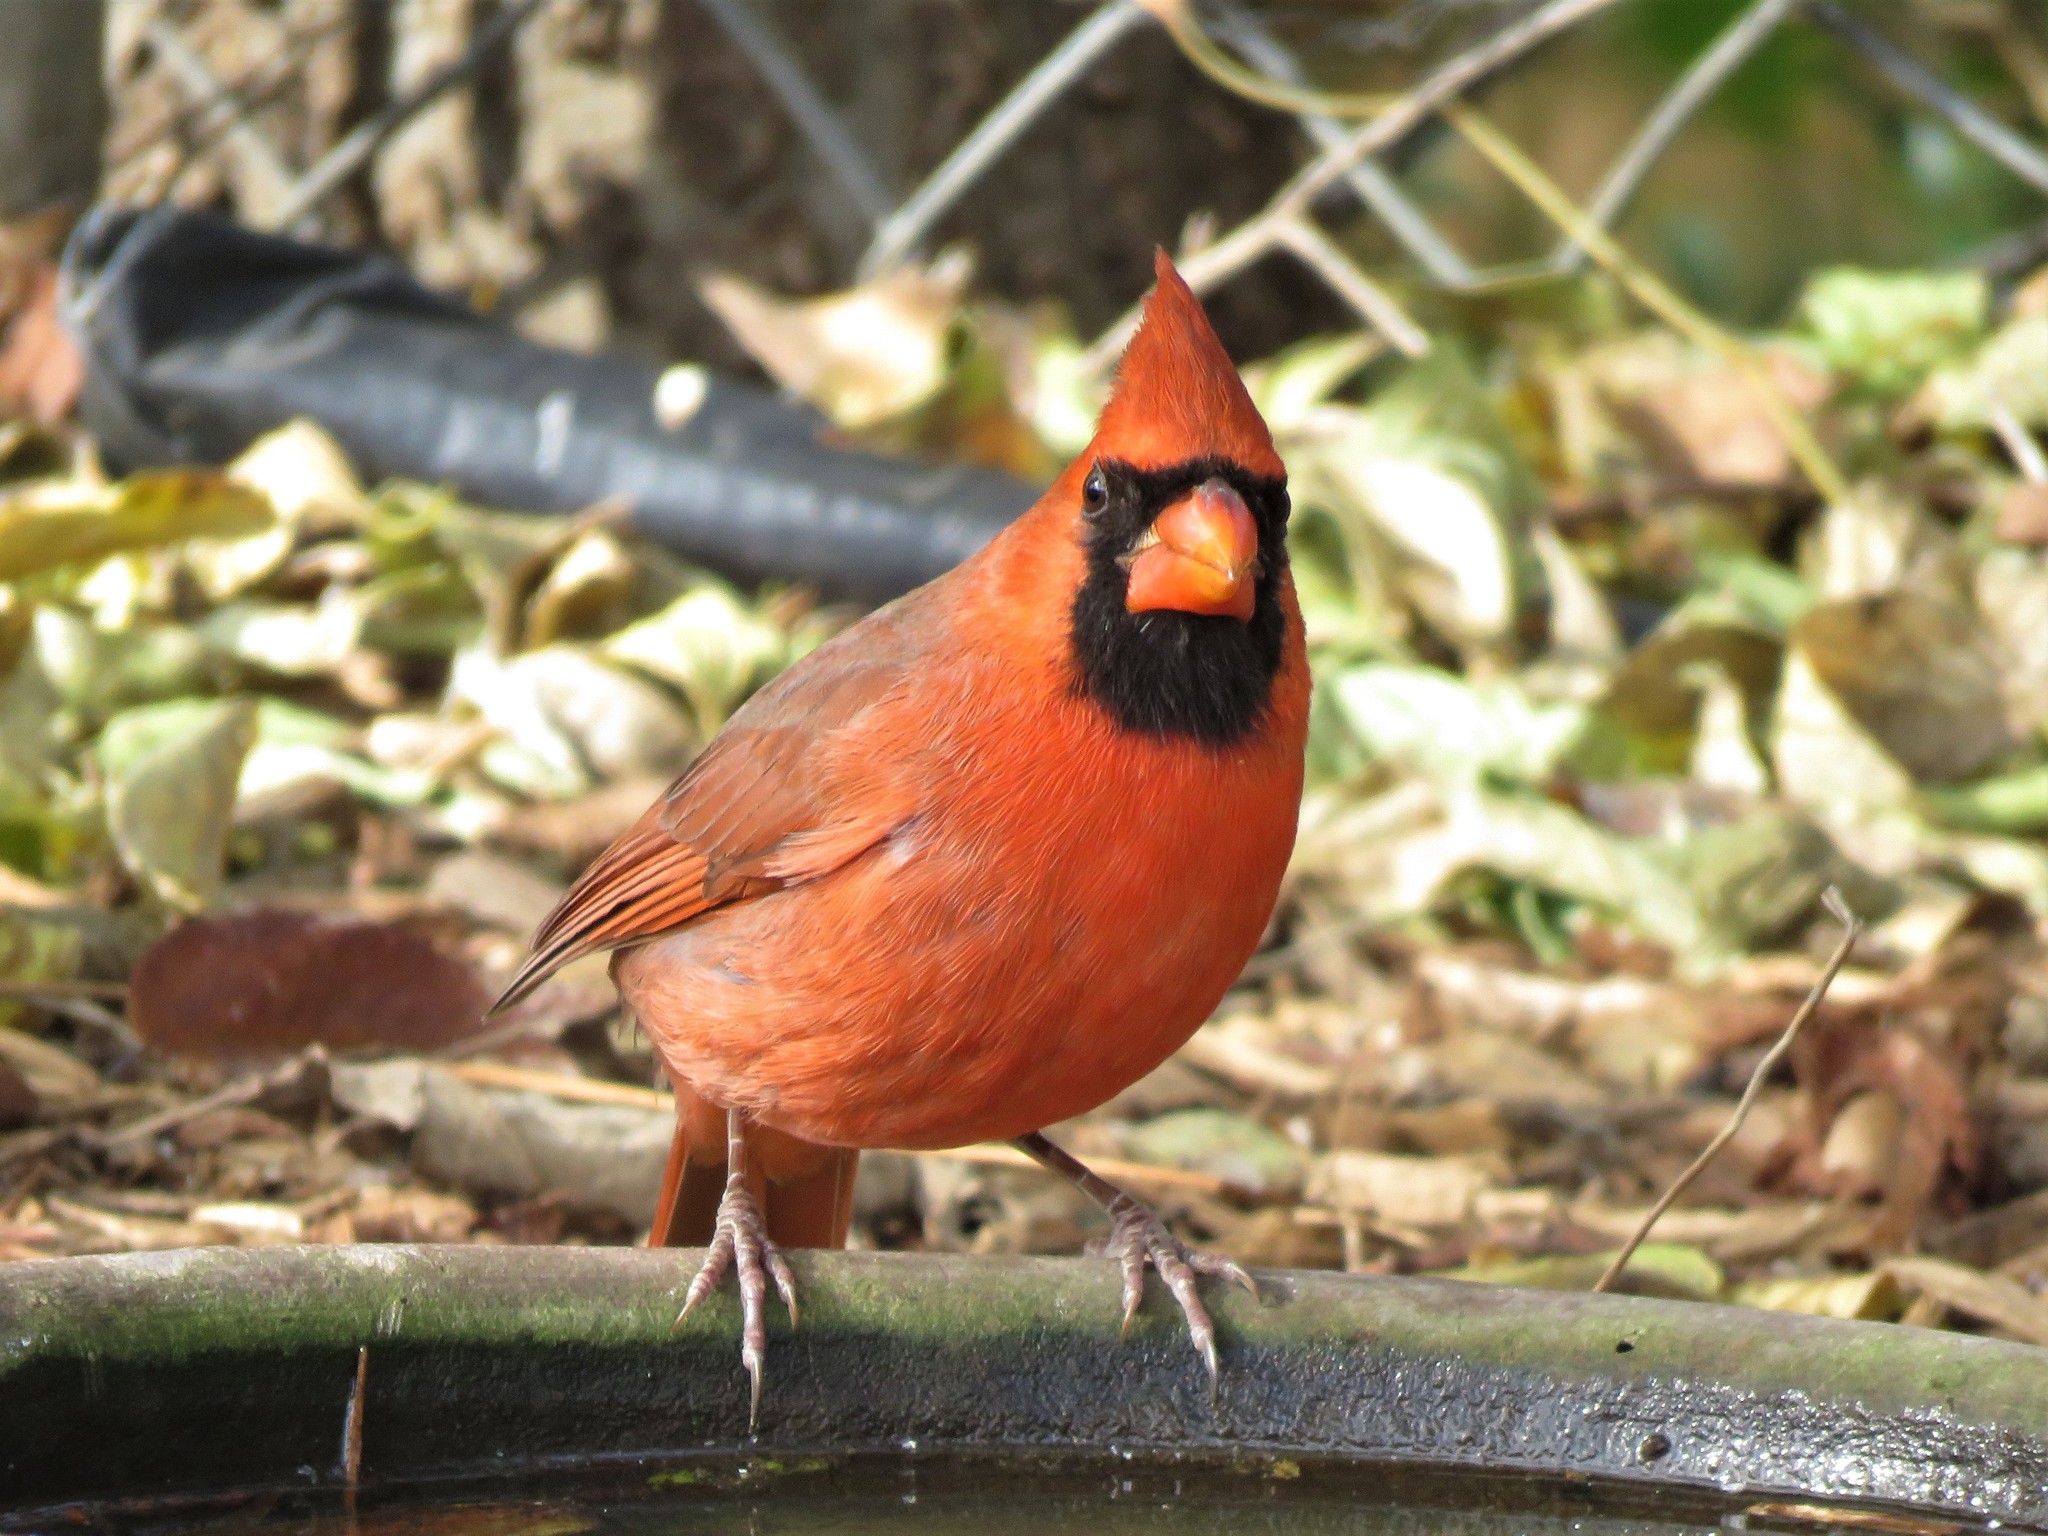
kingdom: Animalia
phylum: Chordata
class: Aves
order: Passeriformes
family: Cardinalidae
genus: Cardinalis
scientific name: Cardinalis cardinalis
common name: Northern cardinal
